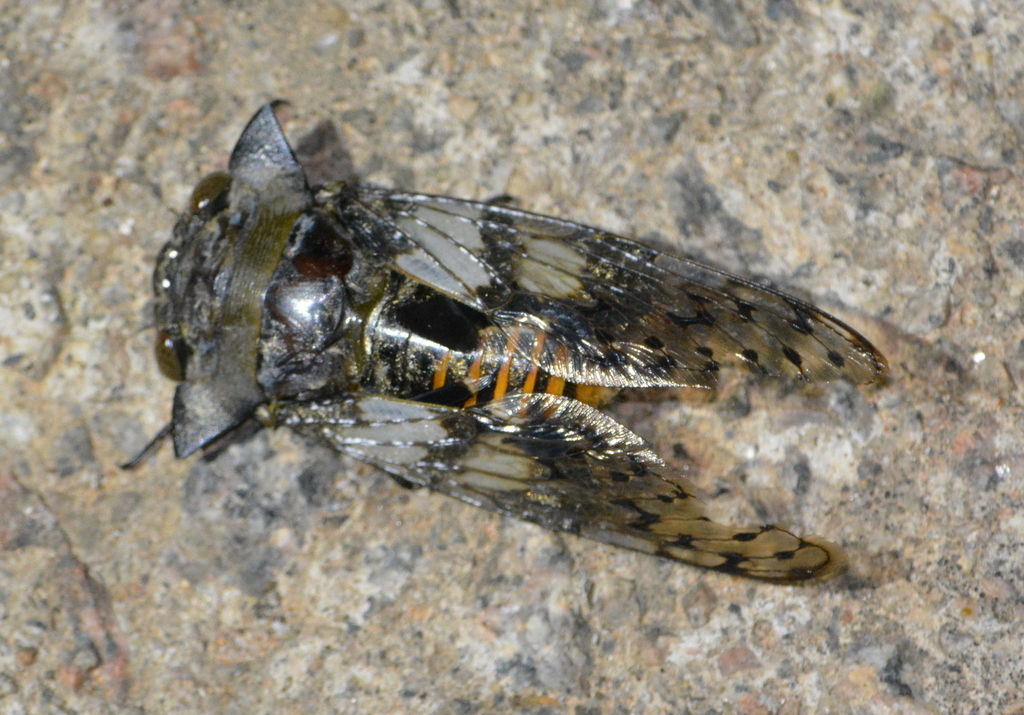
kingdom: Animalia
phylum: Arthropoda
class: Insecta
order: Hemiptera
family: Cicadidae
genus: Ioba
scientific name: Ioba leopardina
